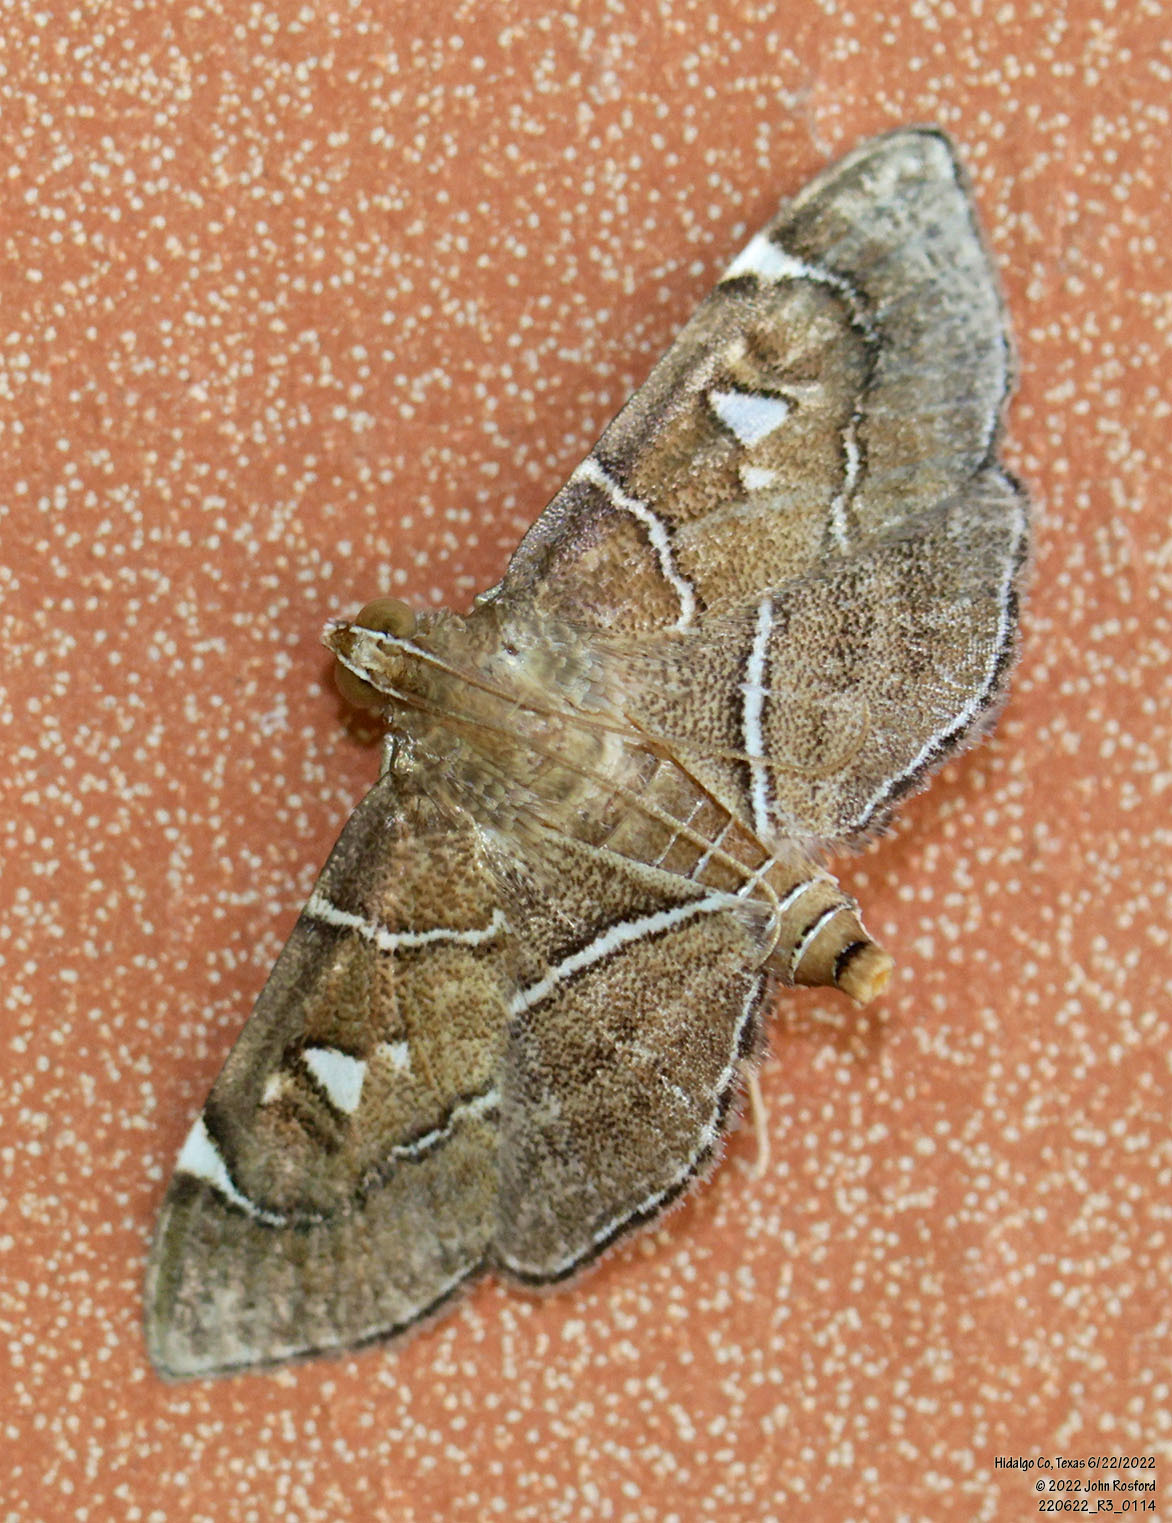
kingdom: Animalia
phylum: Arthropoda
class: Insecta
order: Lepidoptera
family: Crambidae
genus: Lamprosema
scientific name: Lamprosema victoriae
